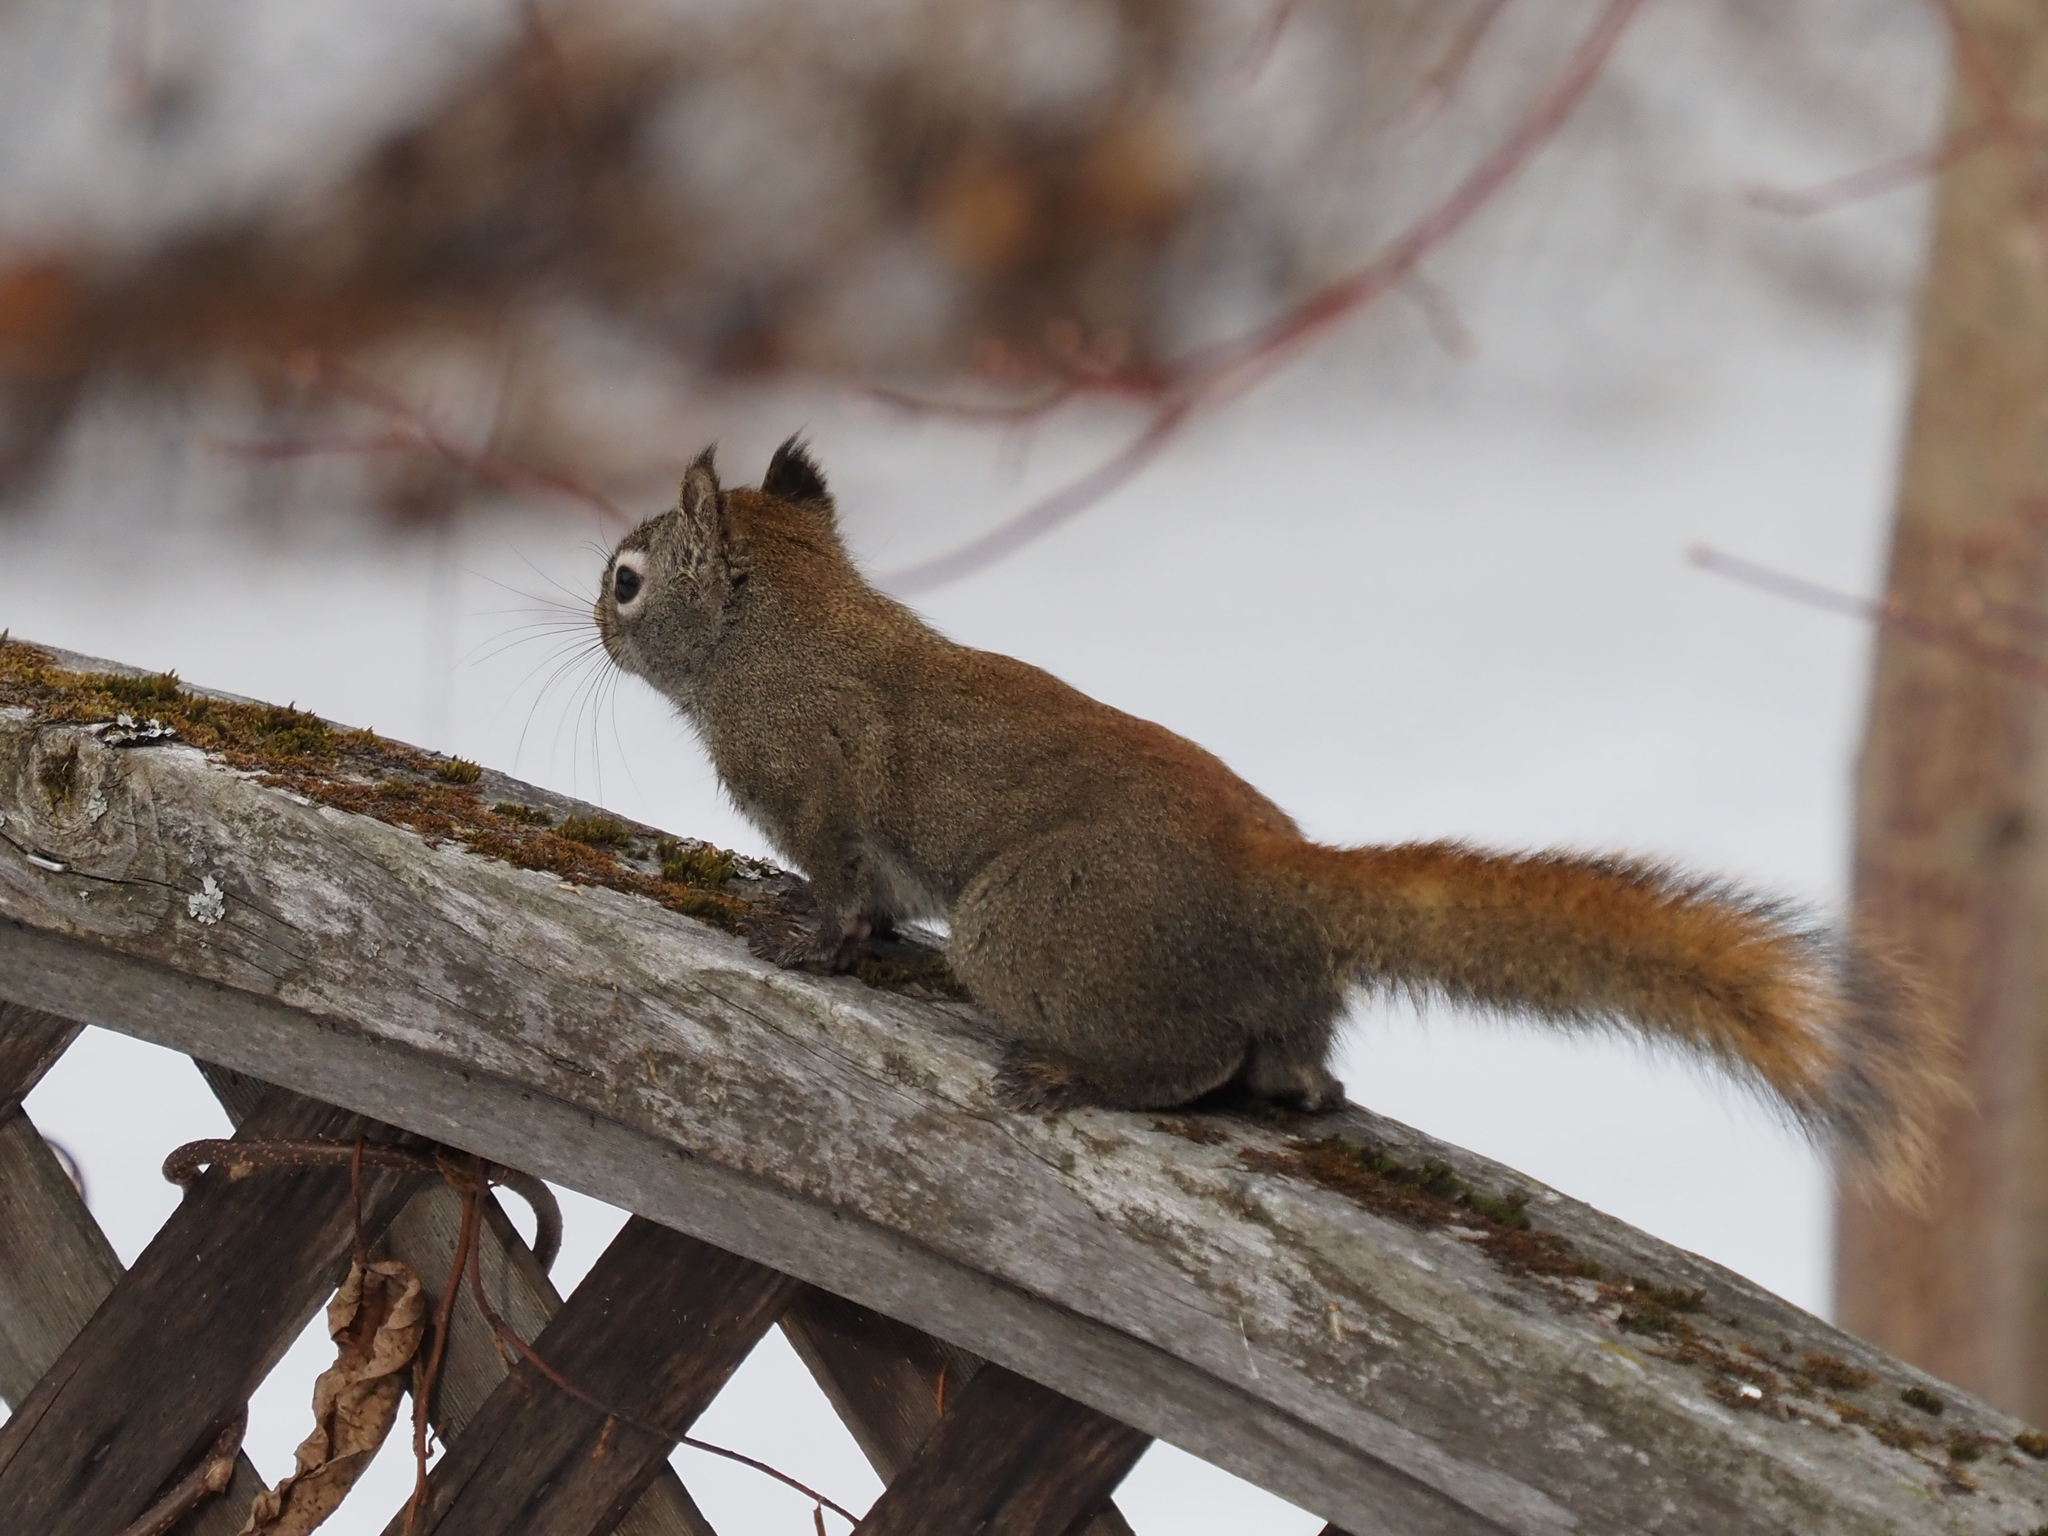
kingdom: Animalia
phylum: Chordata
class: Mammalia
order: Rodentia
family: Sciuridae
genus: Tamiasciurus
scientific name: Tamiasciurus hudsonicus
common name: Red squirrel
